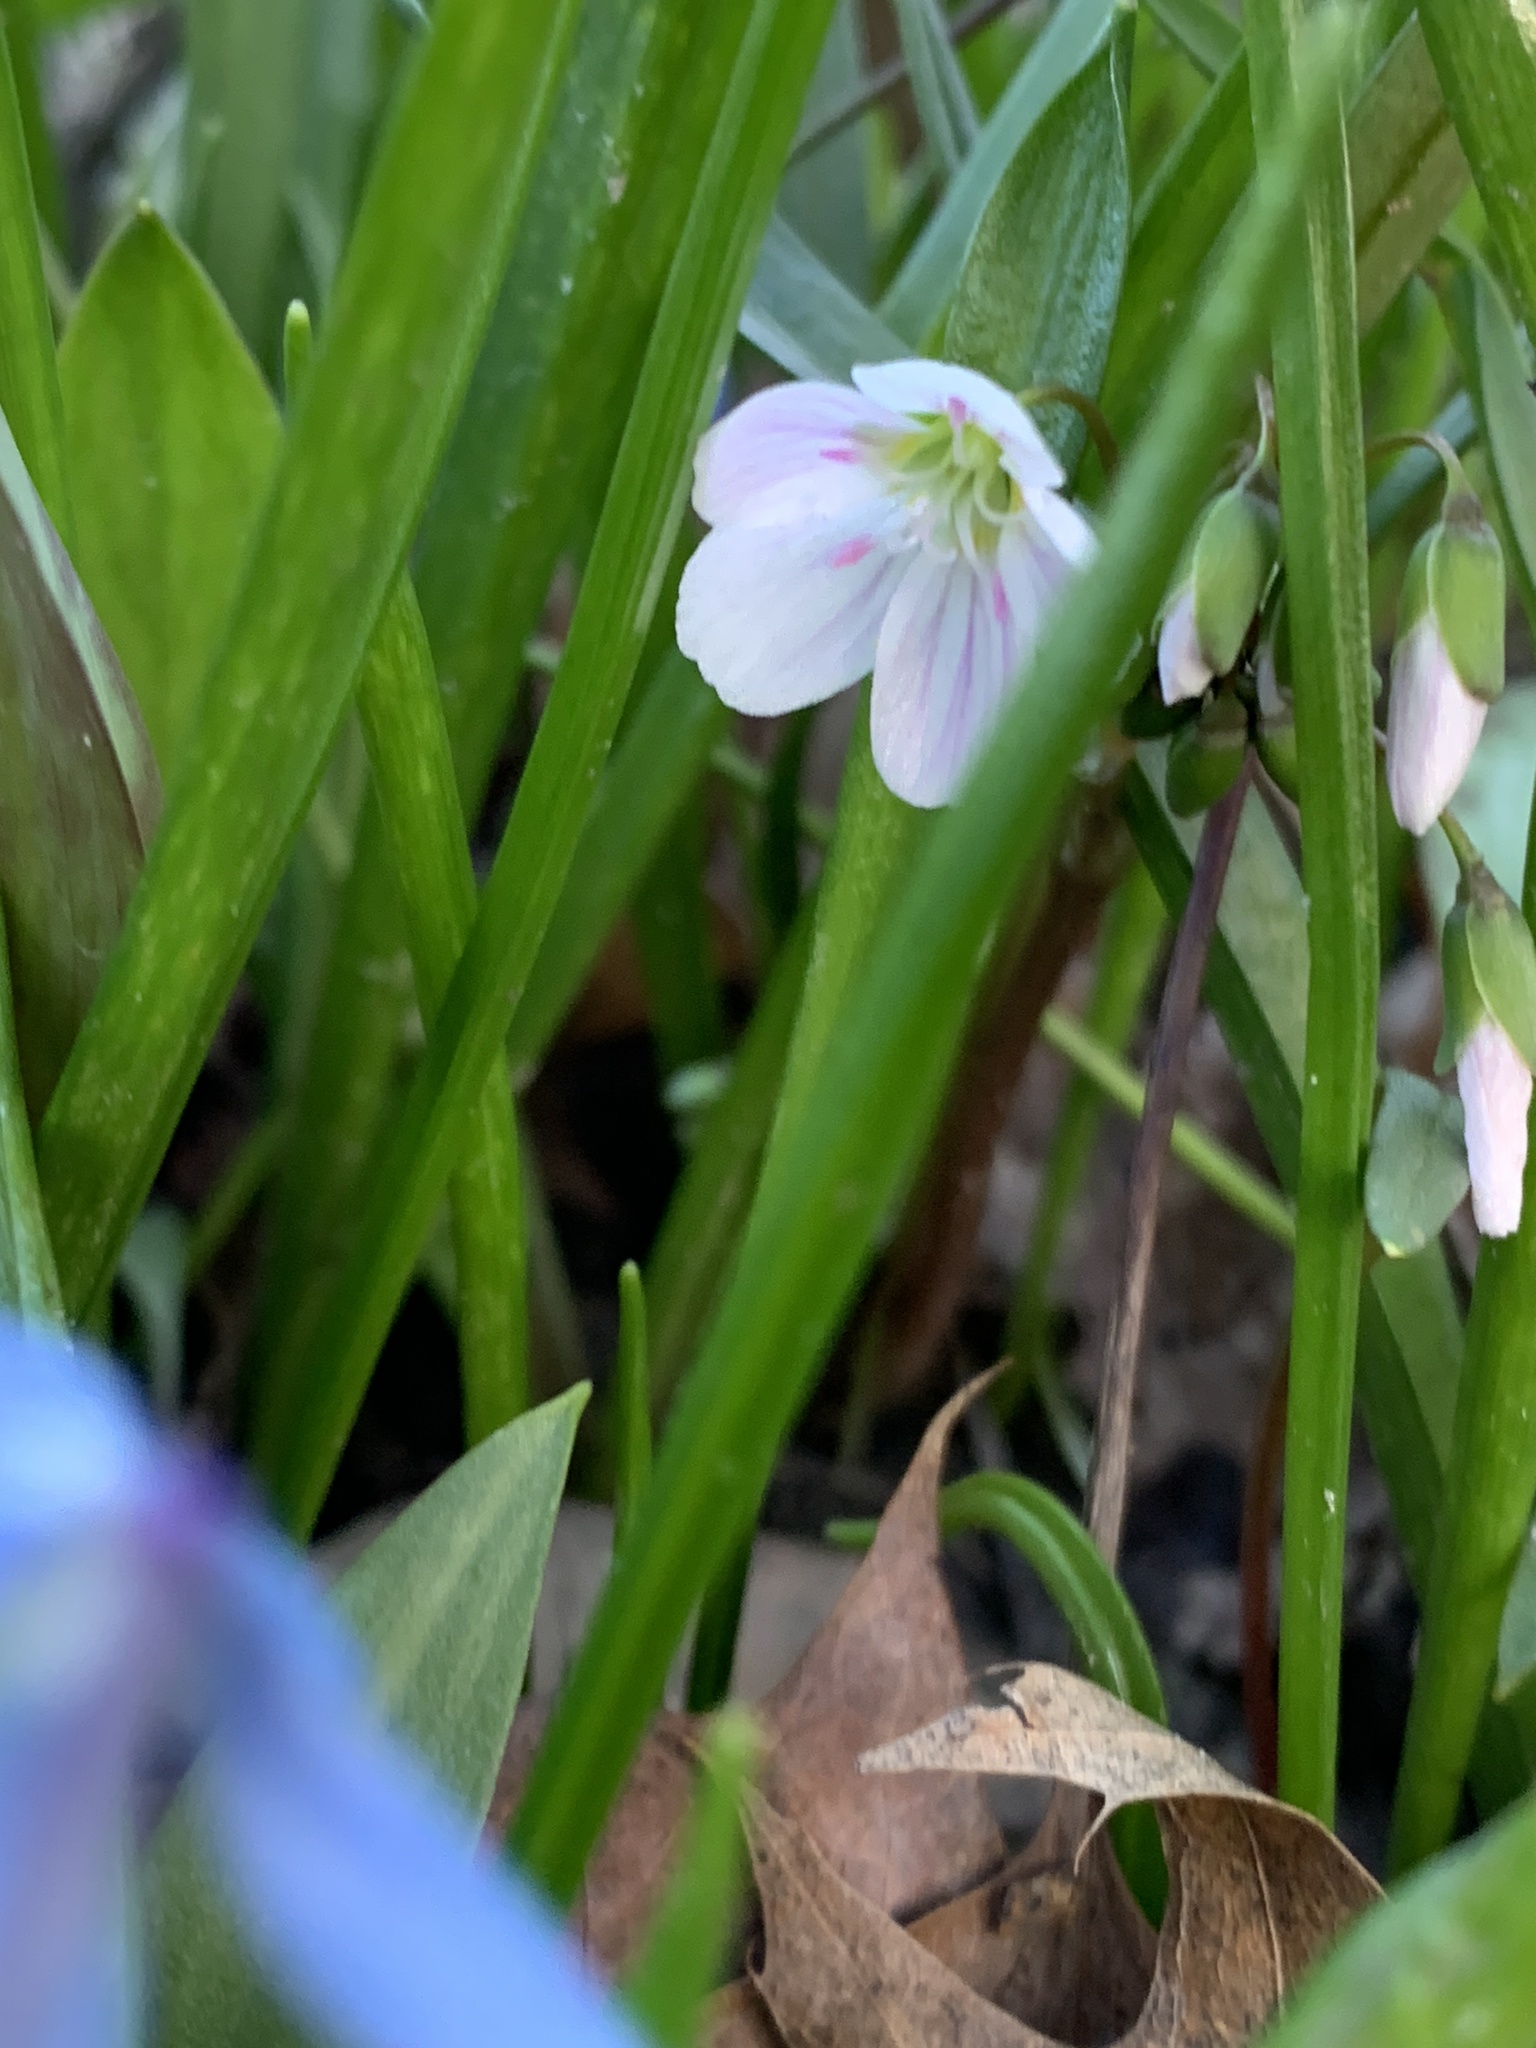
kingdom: Plantae
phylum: Tracheophyta
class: Magnoliopsida
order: Caryophyllales
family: Montiaceae
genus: Claytonia
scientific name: Claytonia virginica
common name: Virginia springbeauty
